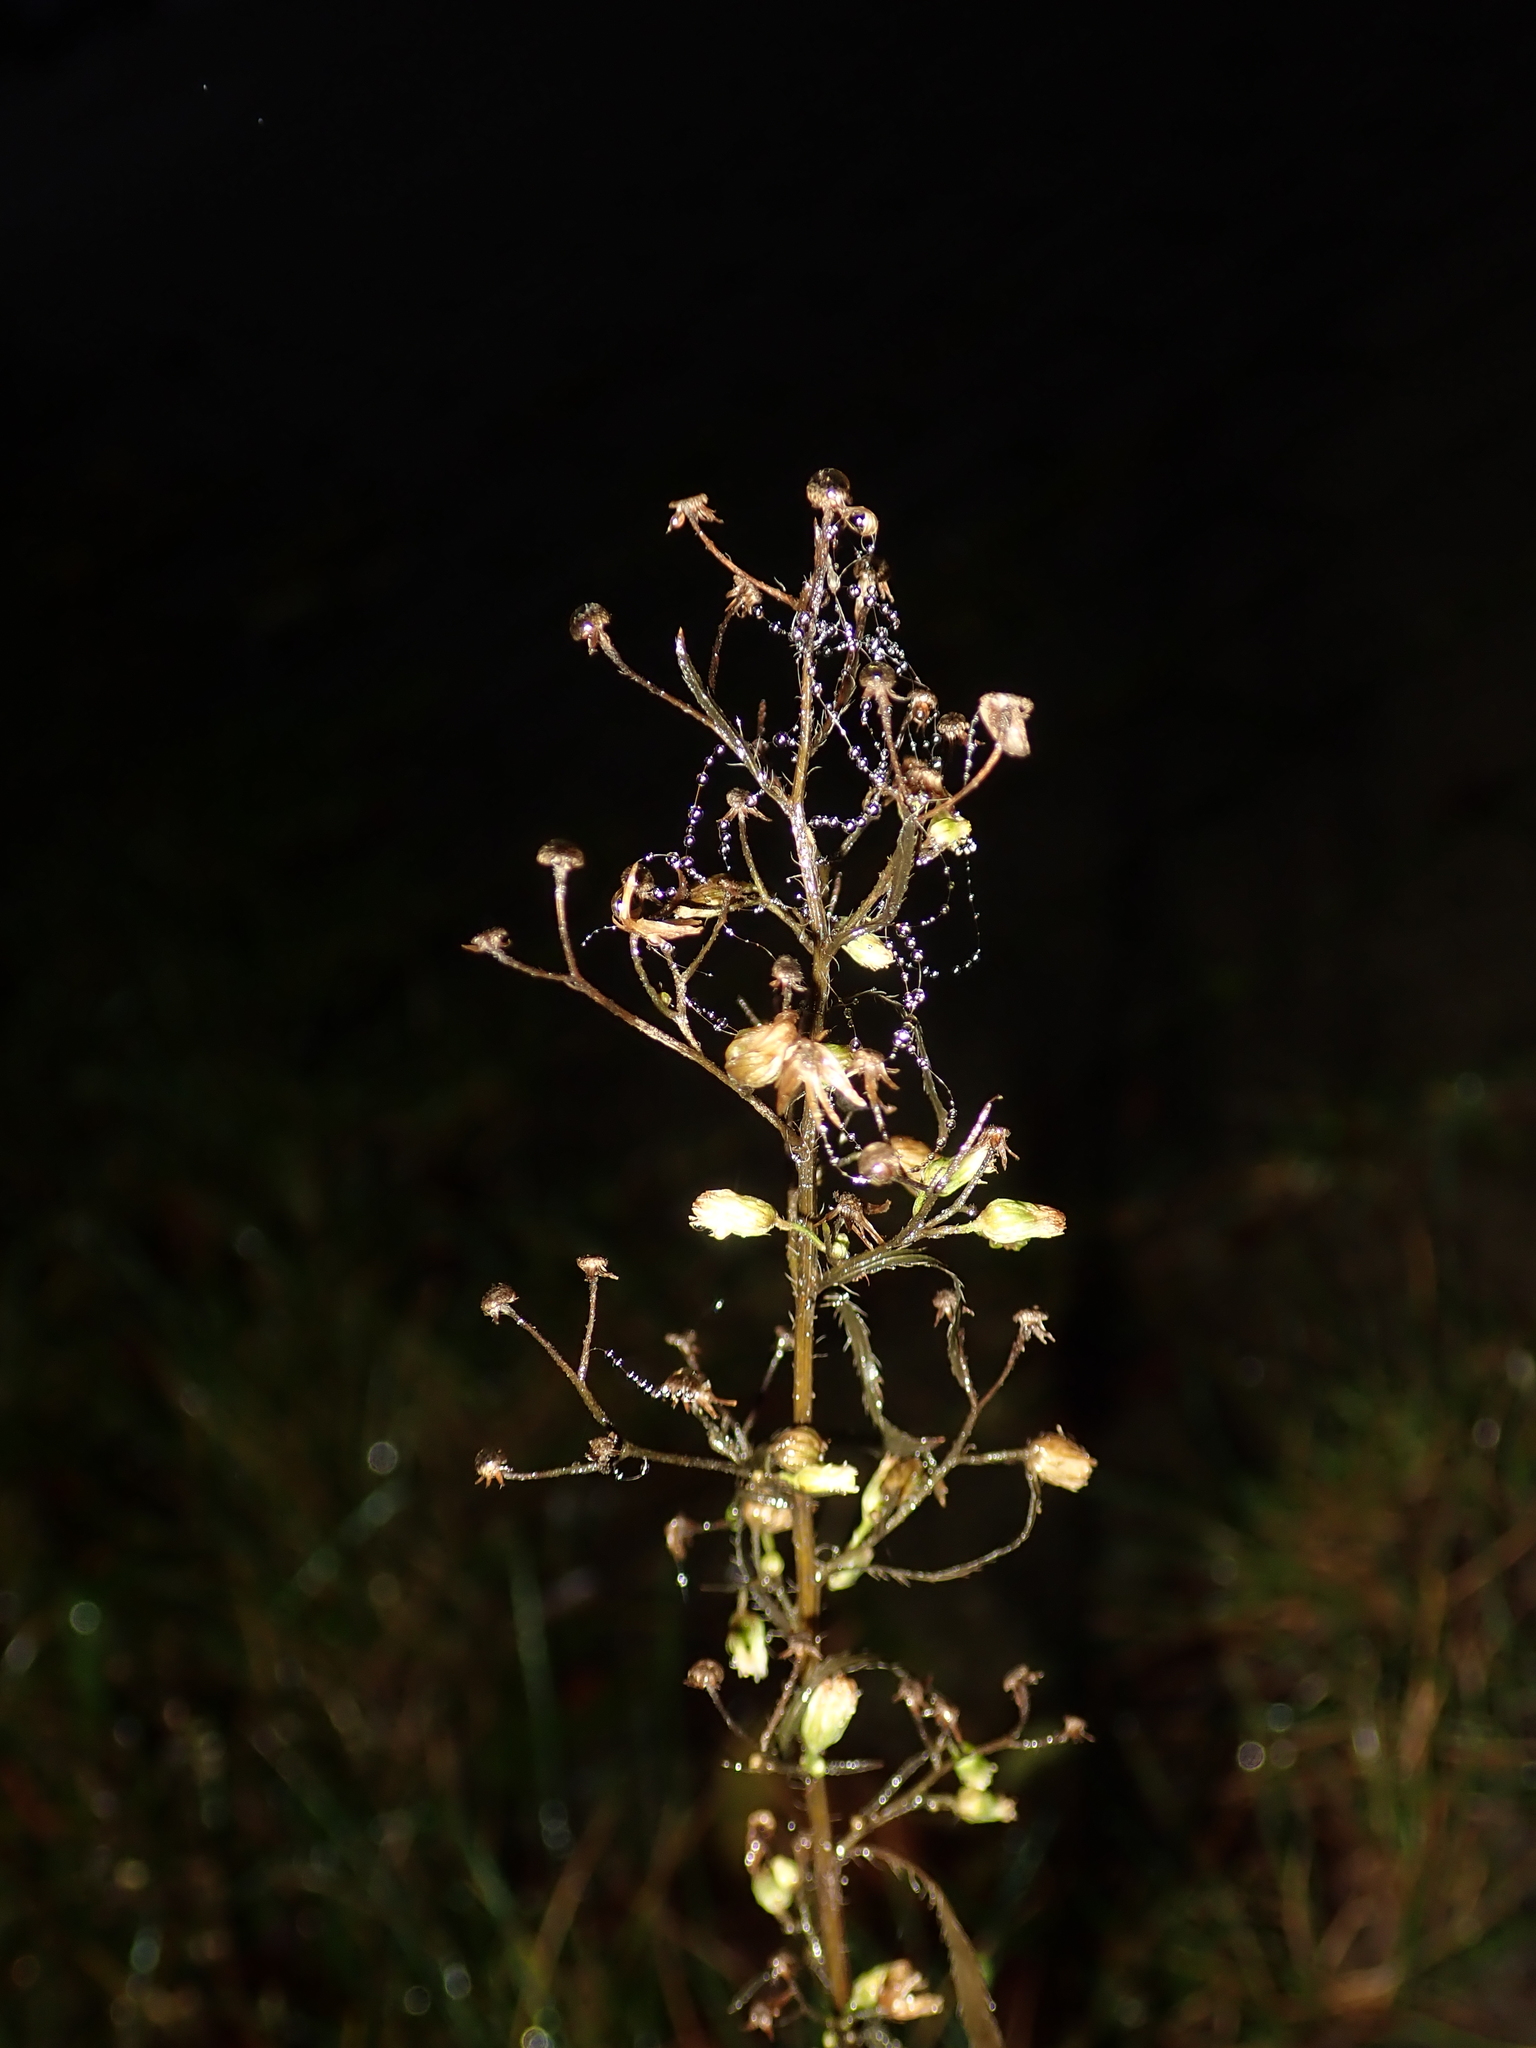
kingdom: Plantae
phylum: Tracheophyta
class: Magnoliopsida
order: Asterales
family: Asteraceae
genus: Erigeron
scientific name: Erigeron canadensis
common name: Canadian fleabane
